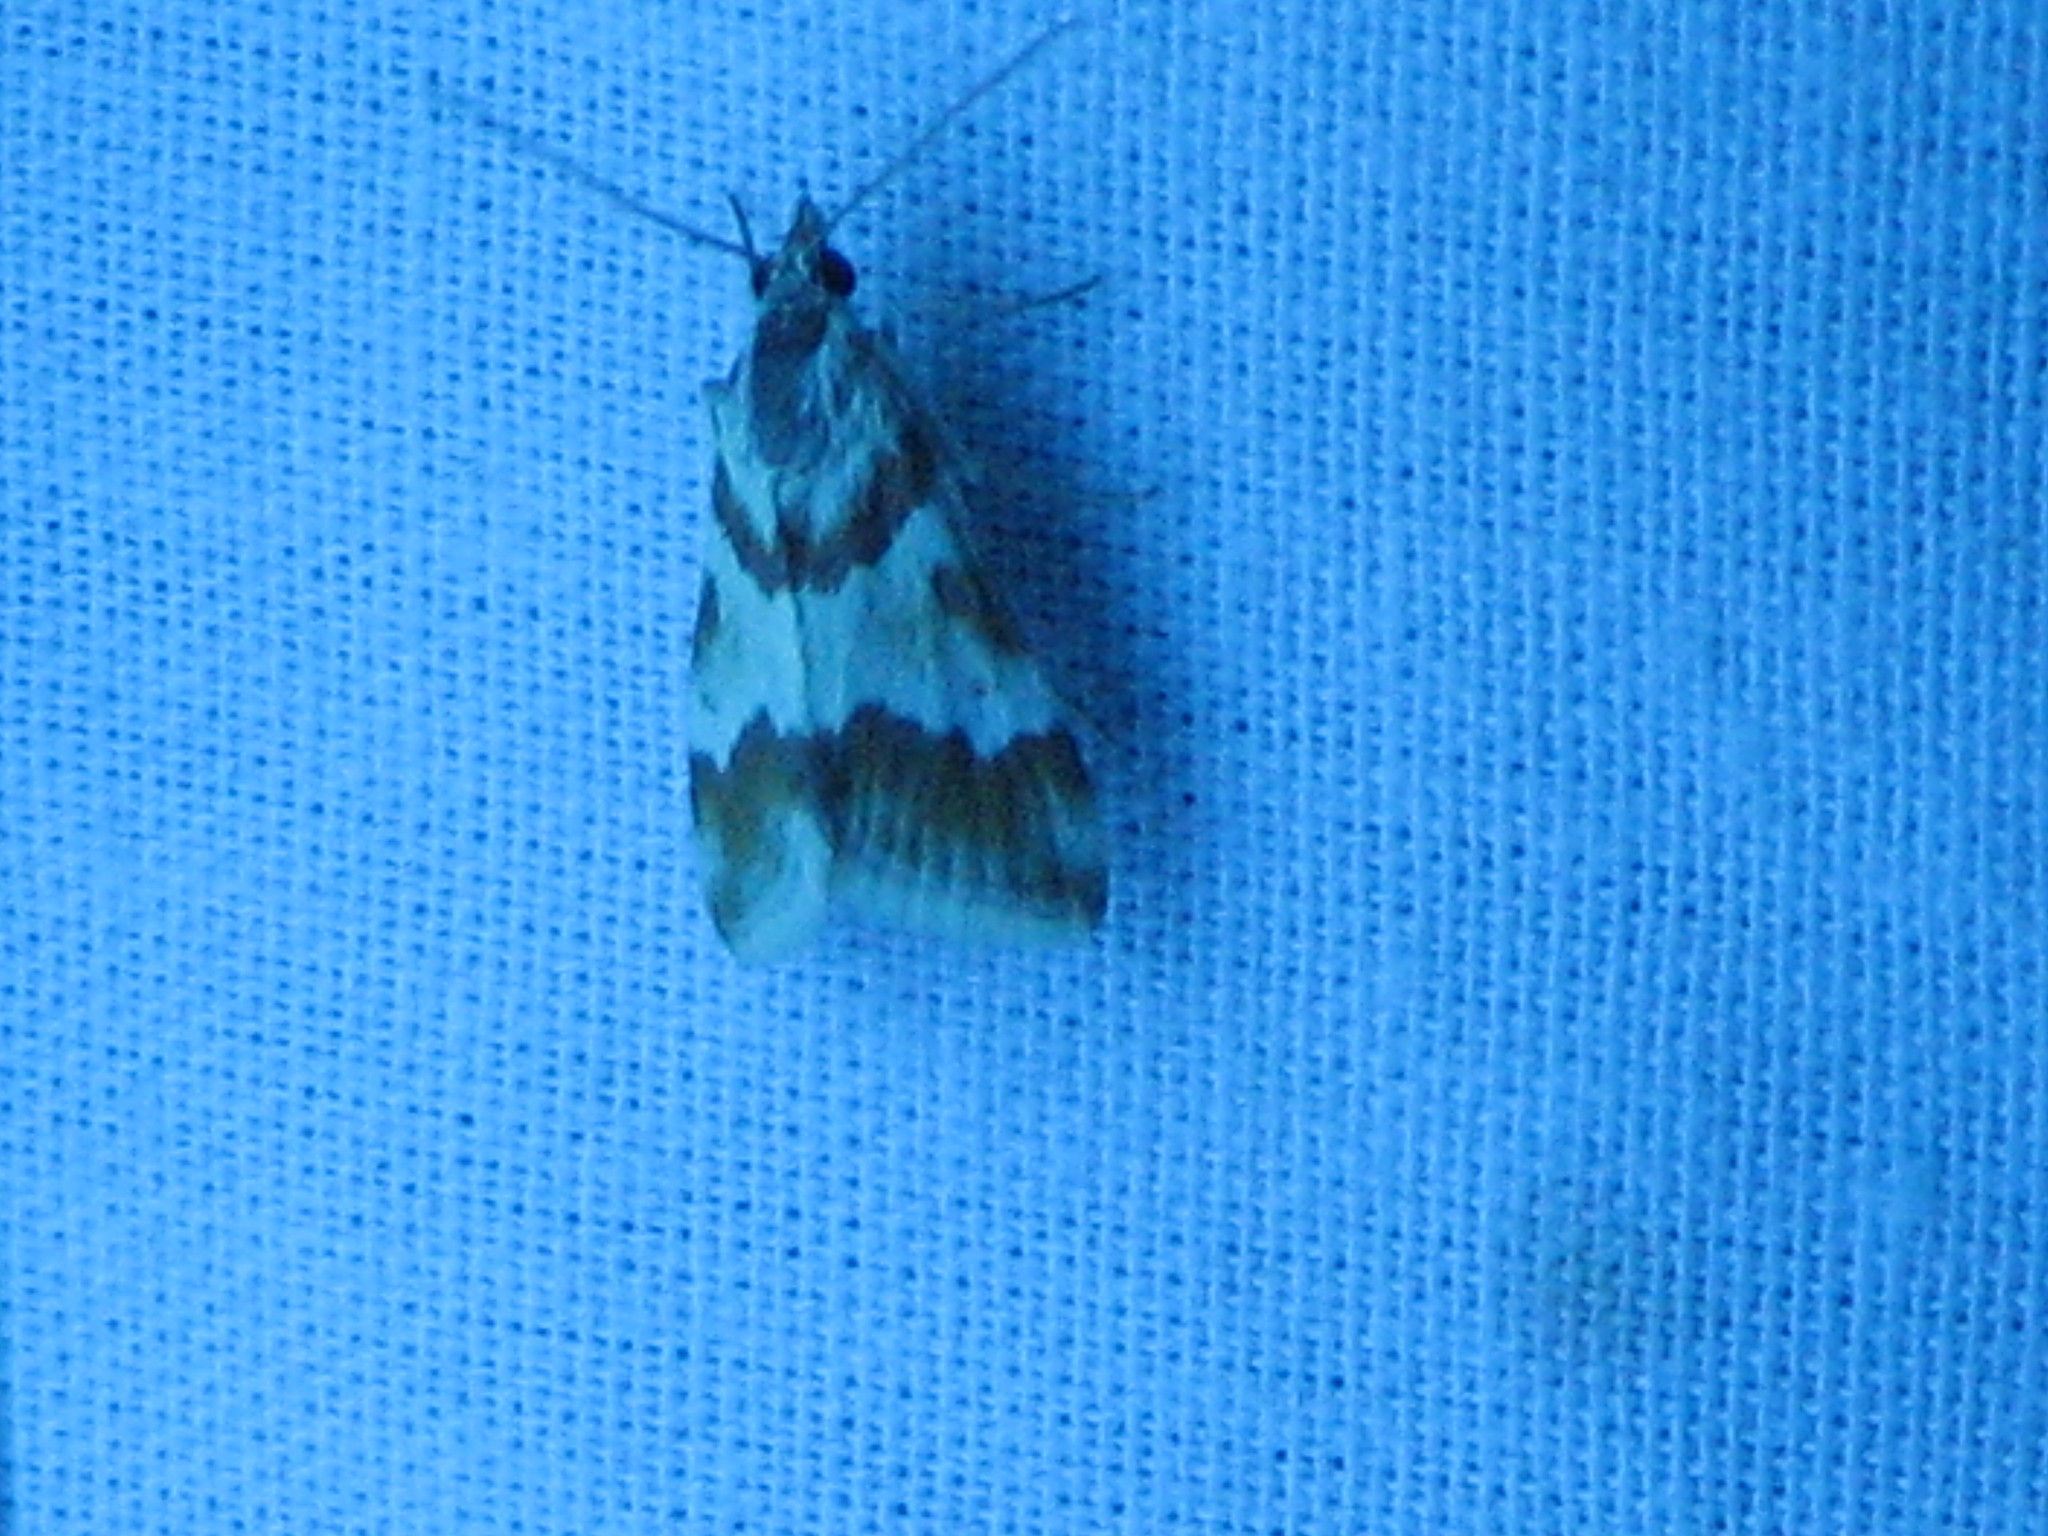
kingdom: Animalia
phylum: Arthropoda
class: Insecta
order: Lepidoptera
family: Crambidae
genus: Noctuelia
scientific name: Noctuelia Mimoschinia rufofascialis
